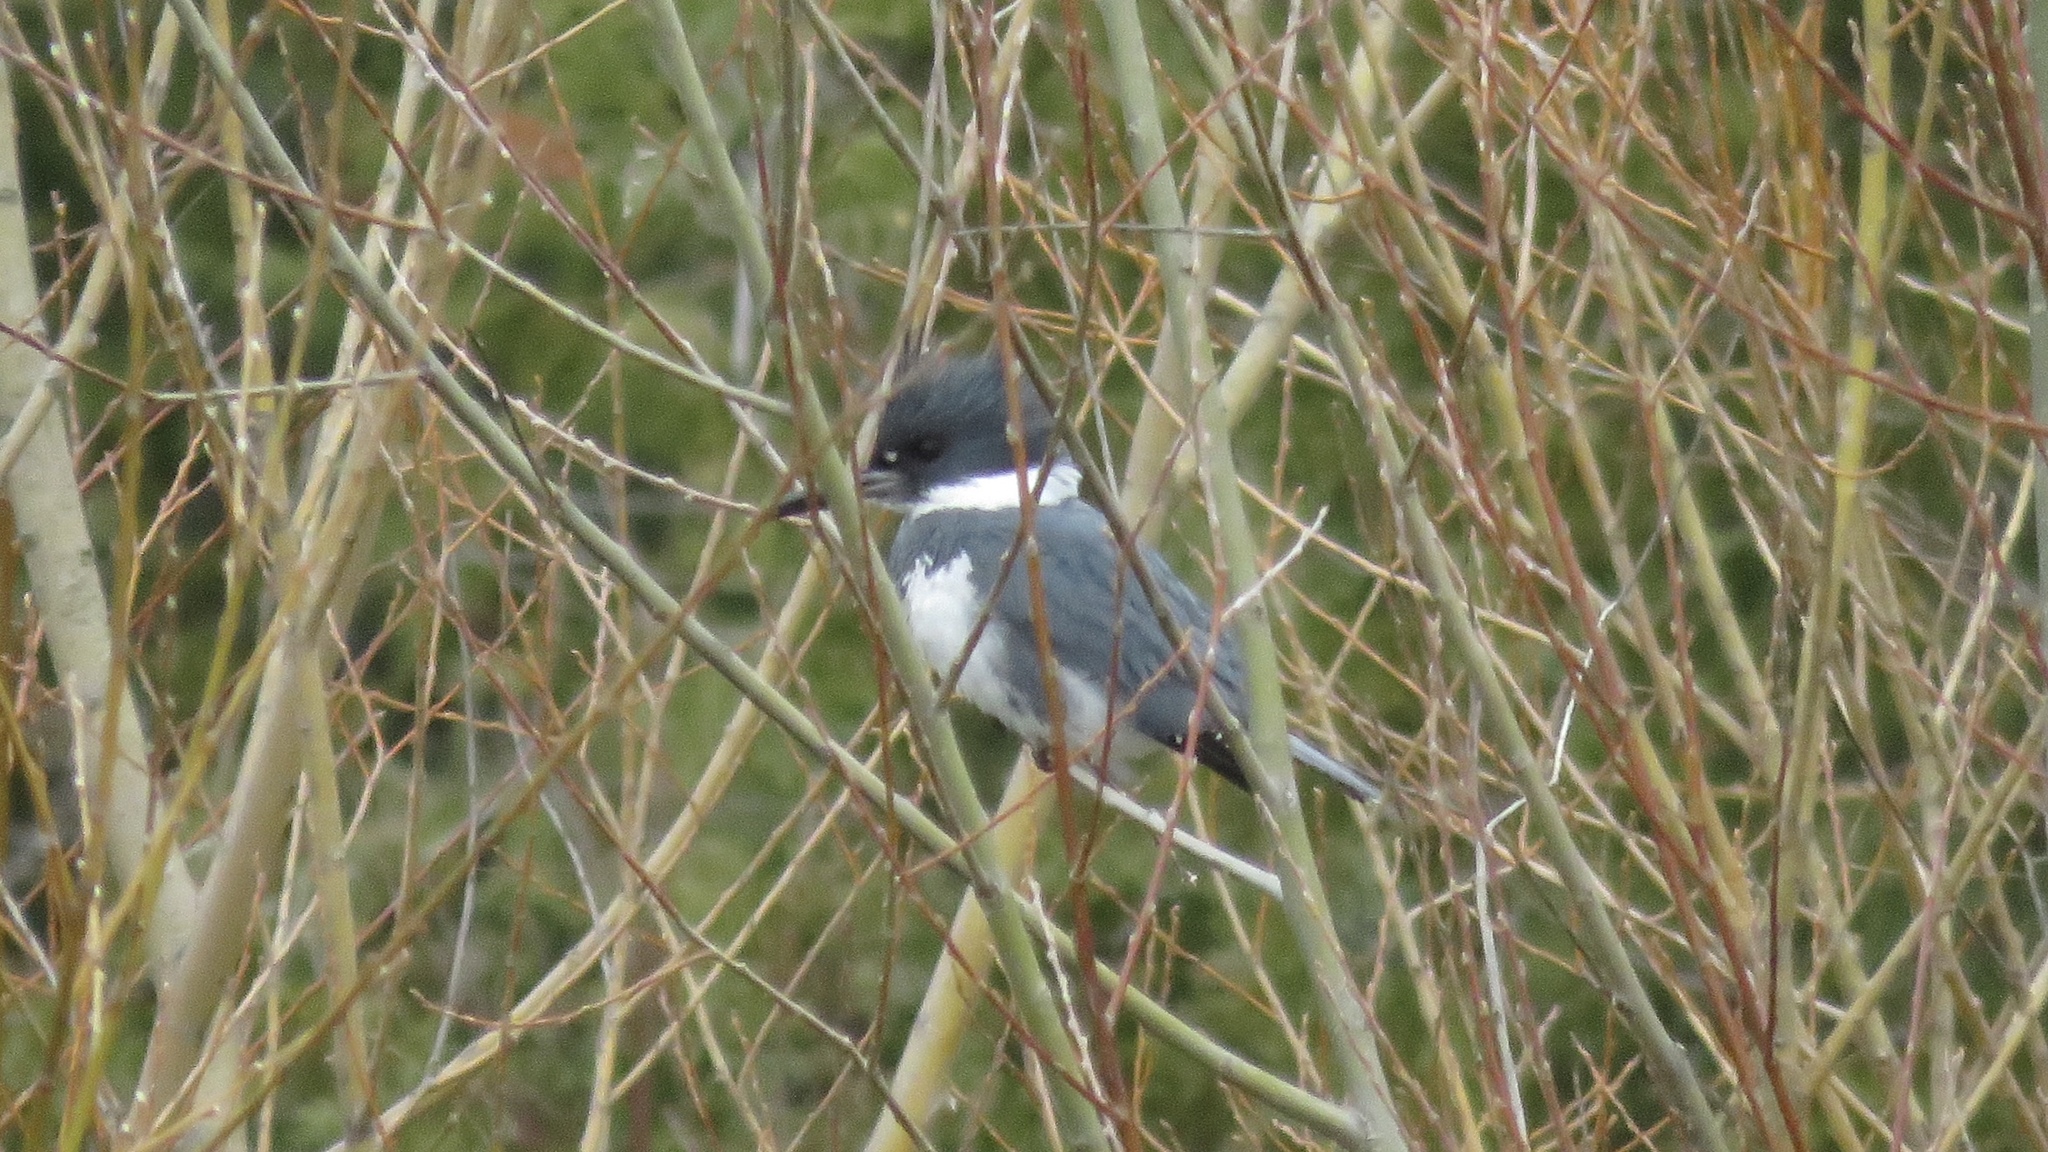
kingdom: Animalia
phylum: Chordata
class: Aves
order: Coraciiformes
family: Alcedinidae
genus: Megaceryle
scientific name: Megaceryle alcyon
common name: Belted kingfisher
